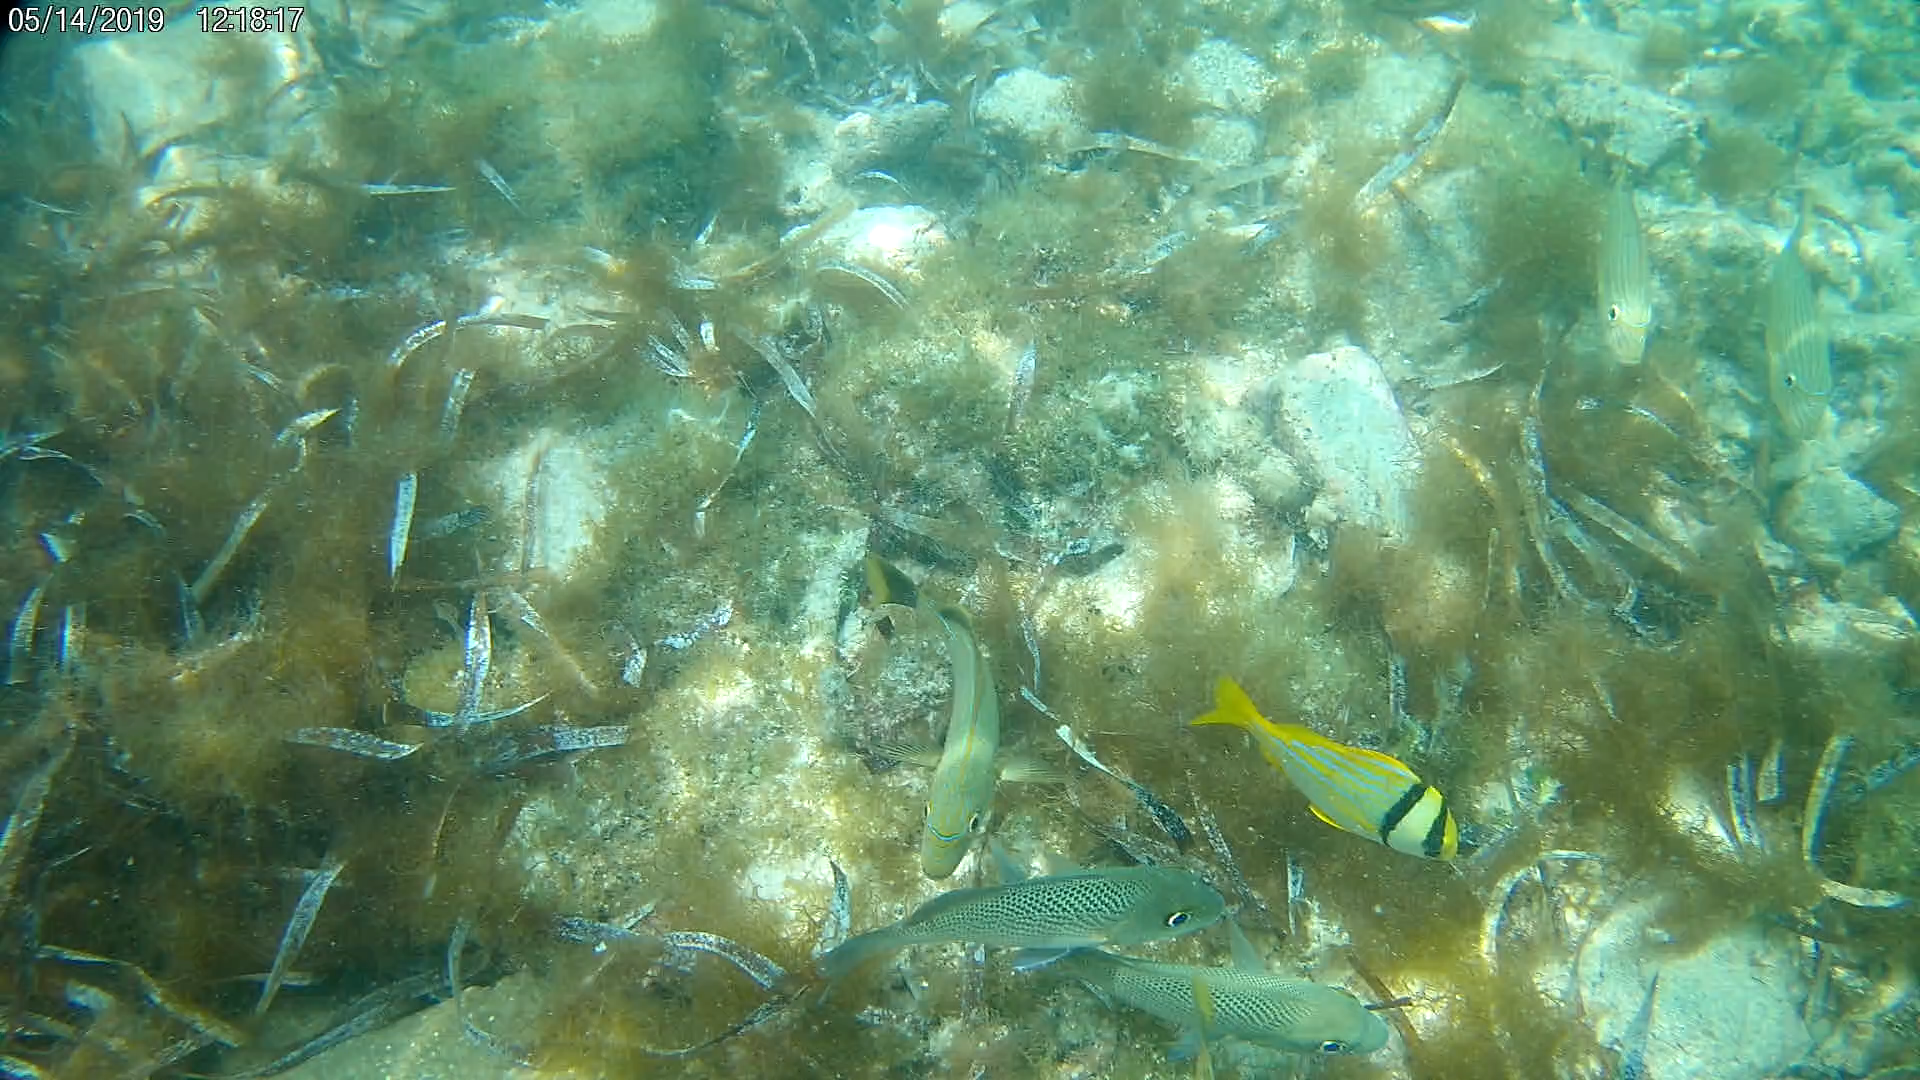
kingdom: Animalia
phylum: Chordata
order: Perciformes
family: Haemulidae
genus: Anisotremus
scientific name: Anisotremus virginicus
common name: Porkfish
